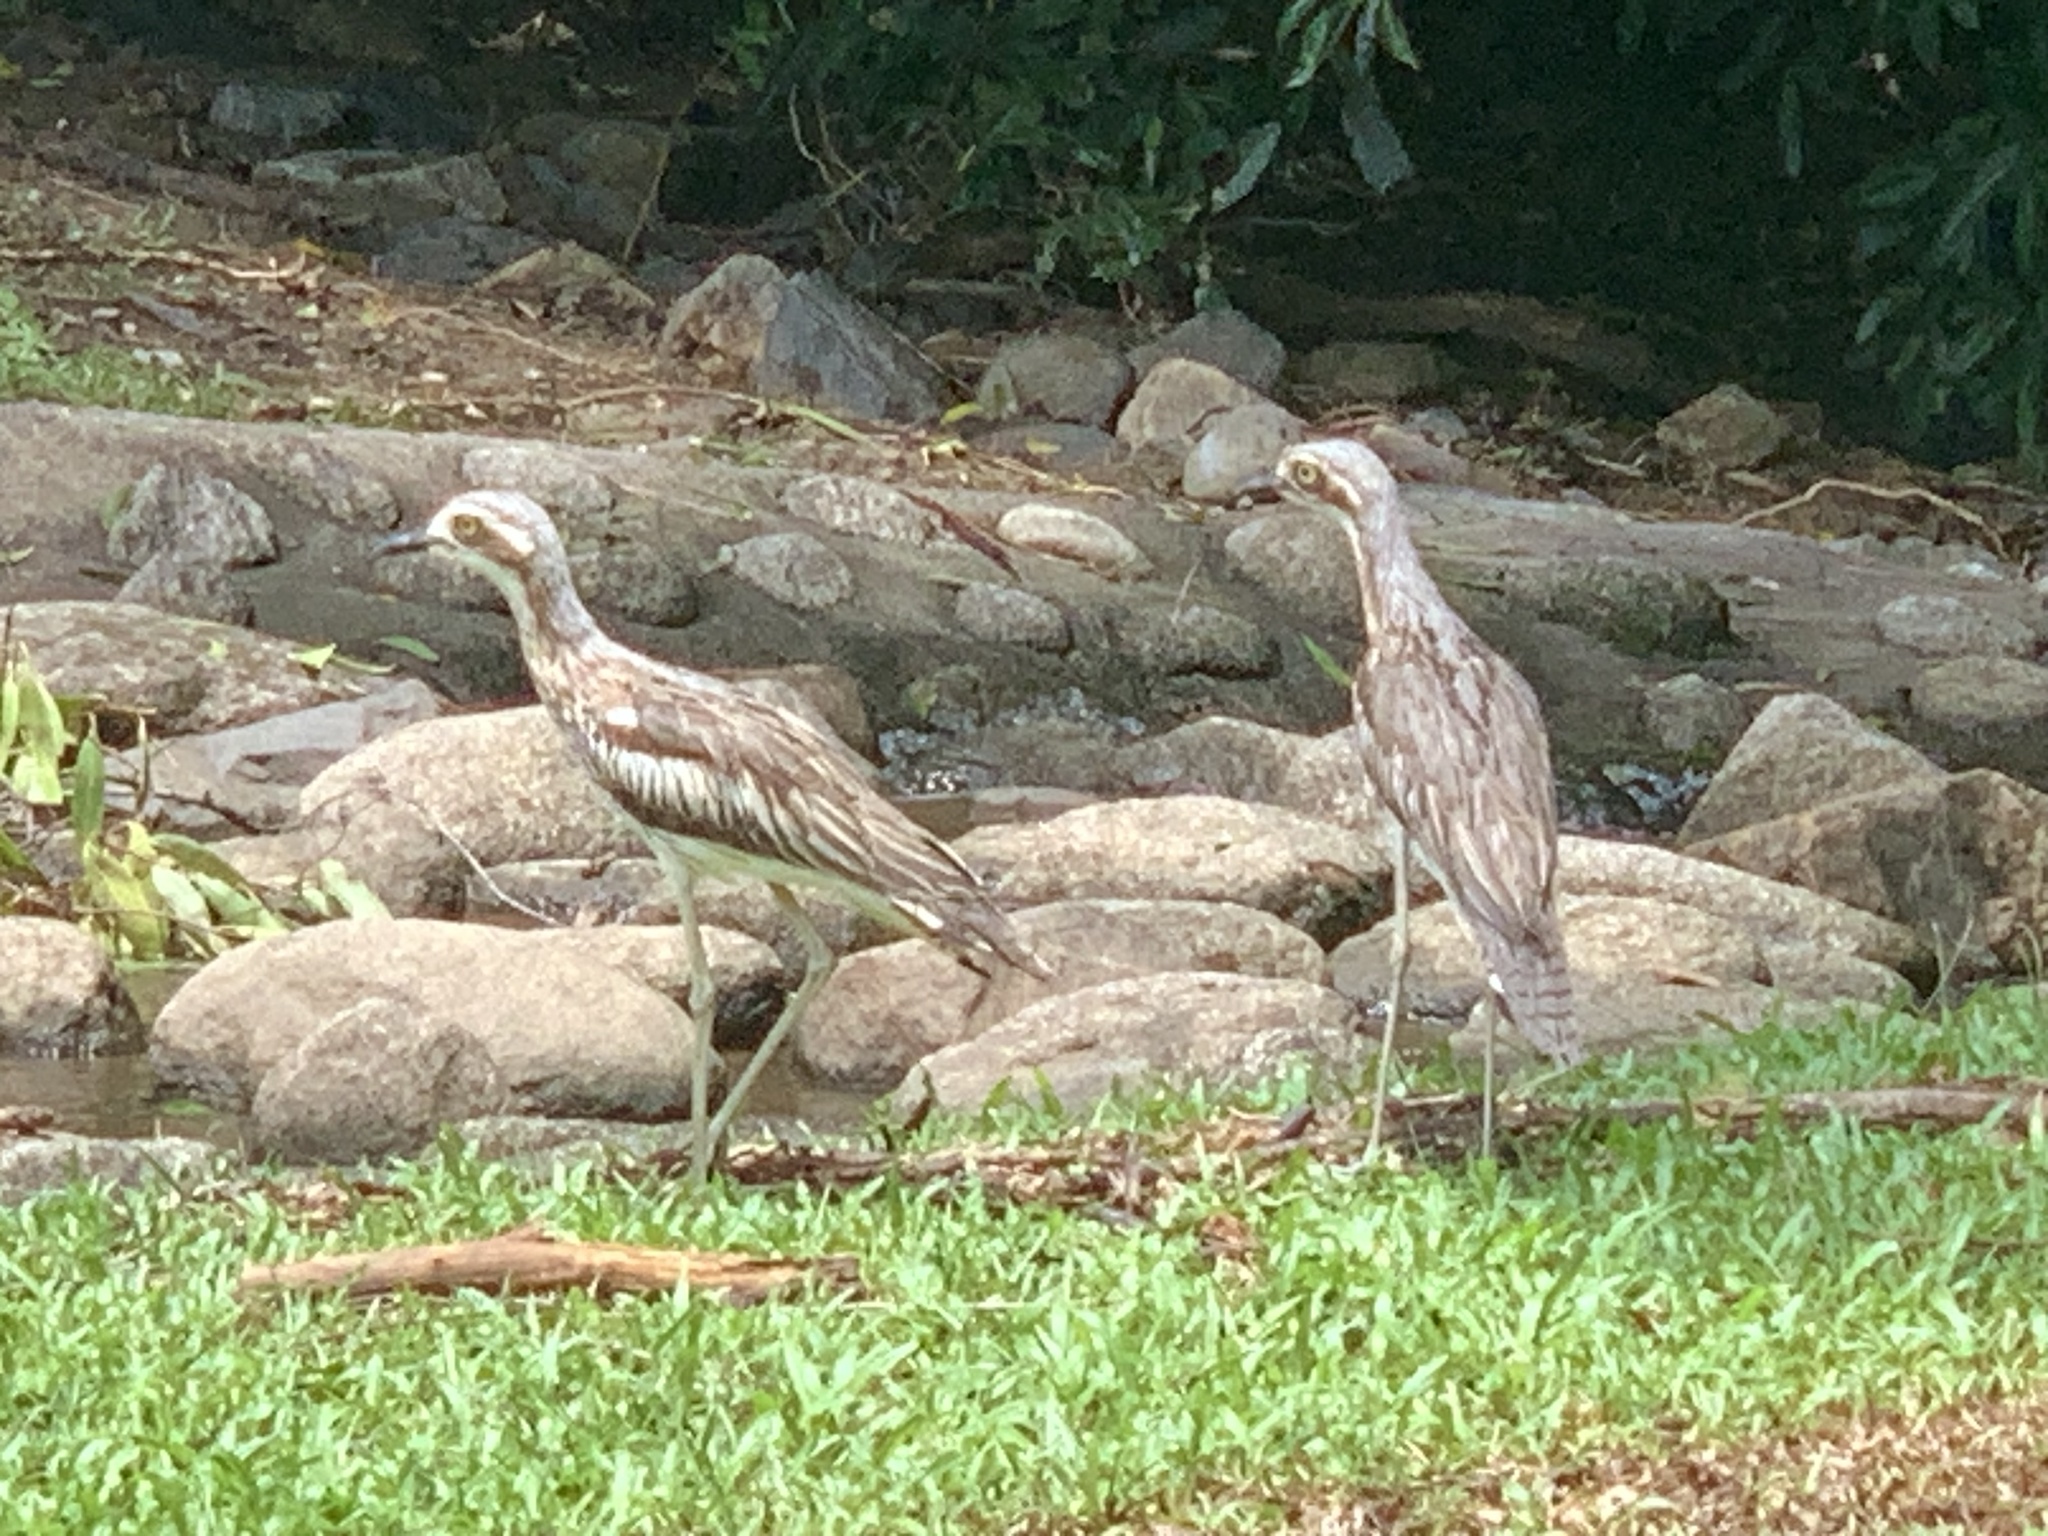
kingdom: Animalia
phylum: Chordata
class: Aves
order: Charadriiformes
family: Burhinidae
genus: Burhinus
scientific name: Burhinus grallarius
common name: Bush stone-curlew
